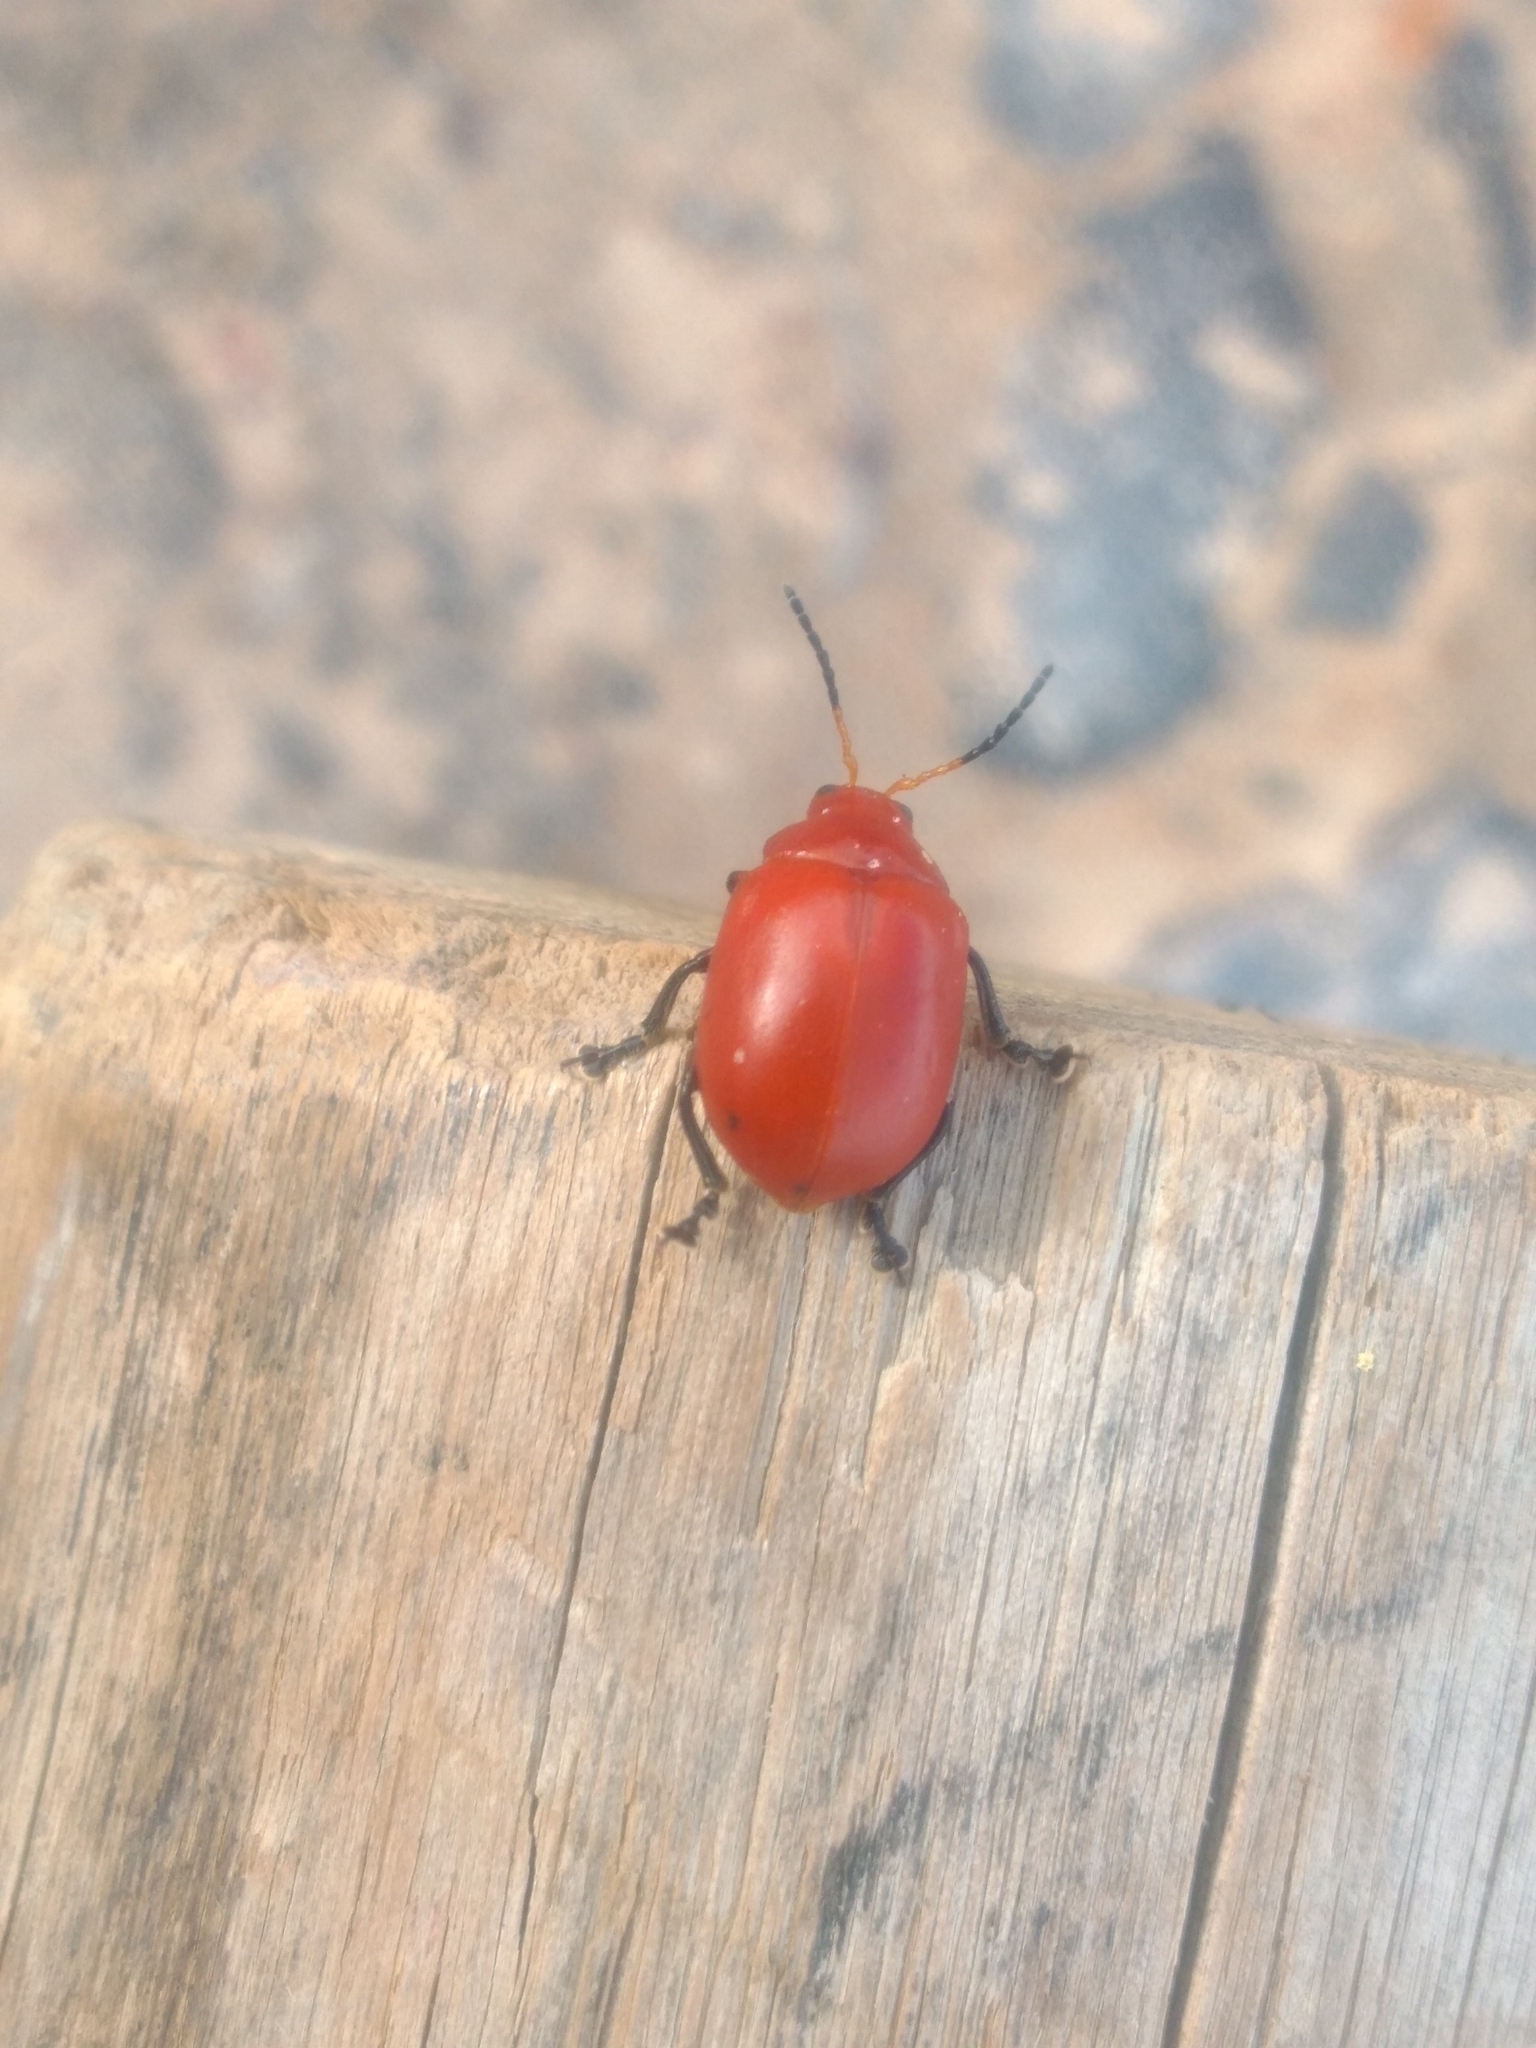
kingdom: Animalia
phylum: Arthropoda
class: Insecta
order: Coleoptera
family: Chrysomelidae
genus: Crimissa
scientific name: Crimissa cruralis
